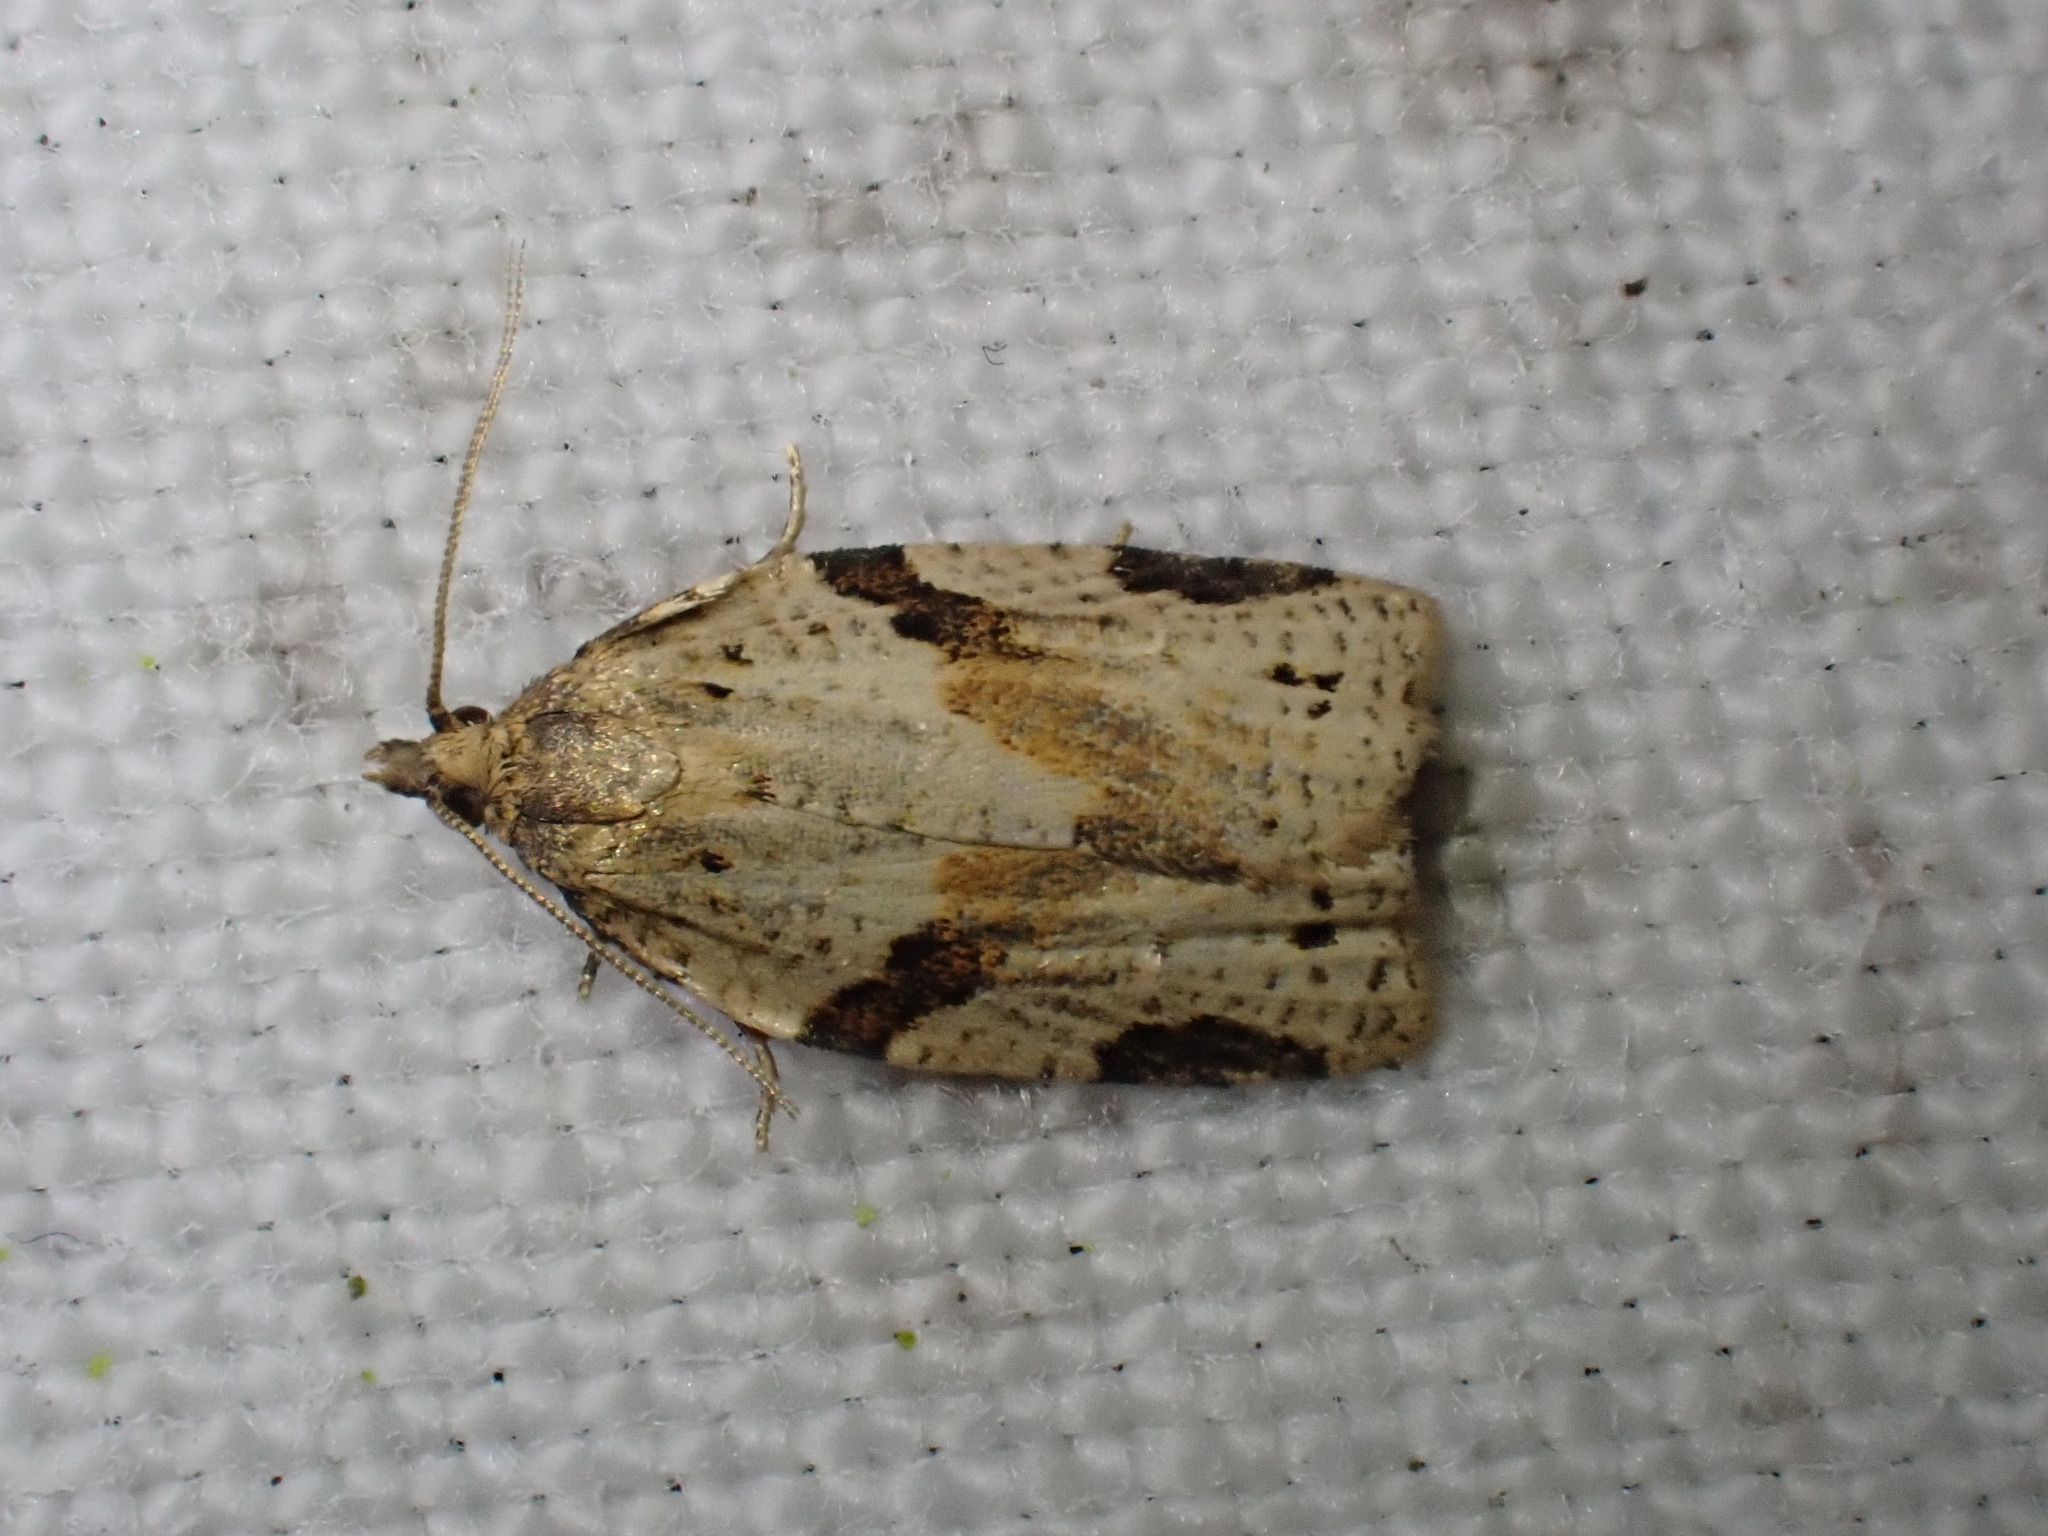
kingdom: Animalia
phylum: Arthropoda
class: Insecta
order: Lepidoptera
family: Tortricidae
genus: Clepsis
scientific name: Clepsis spectrana
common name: Cyclamen tortrix
